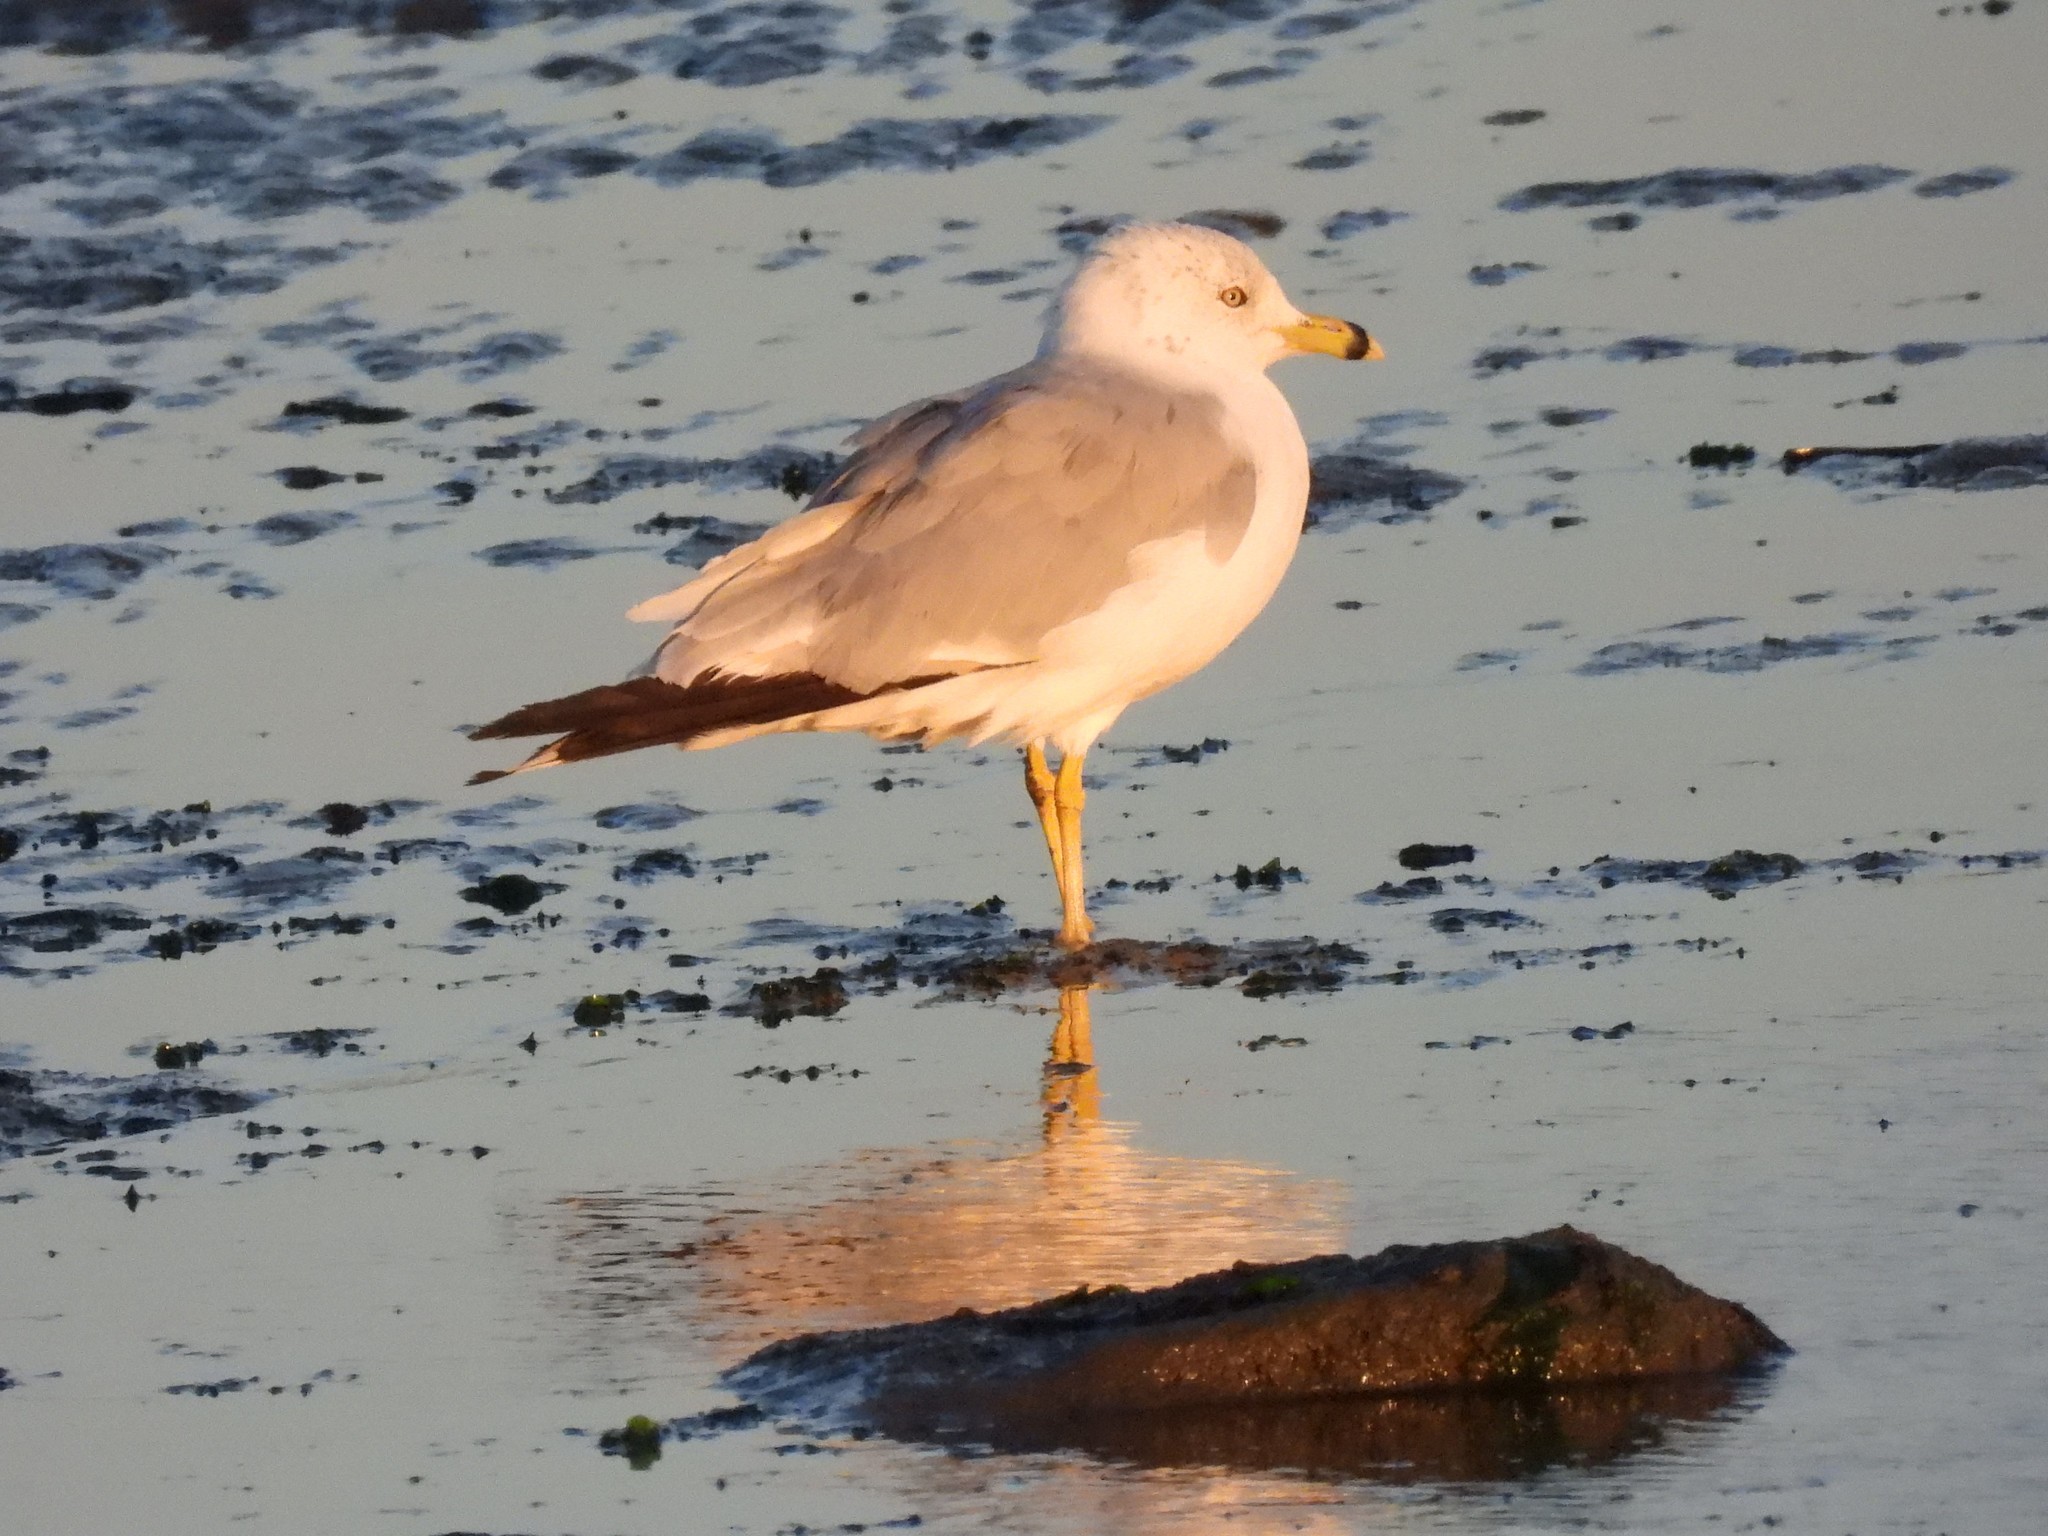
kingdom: Animalia
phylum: Chordata
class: Aves
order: Charadriiformes
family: Laridae
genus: Larus
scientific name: Larus delawarensis
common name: Ring-billed gull
